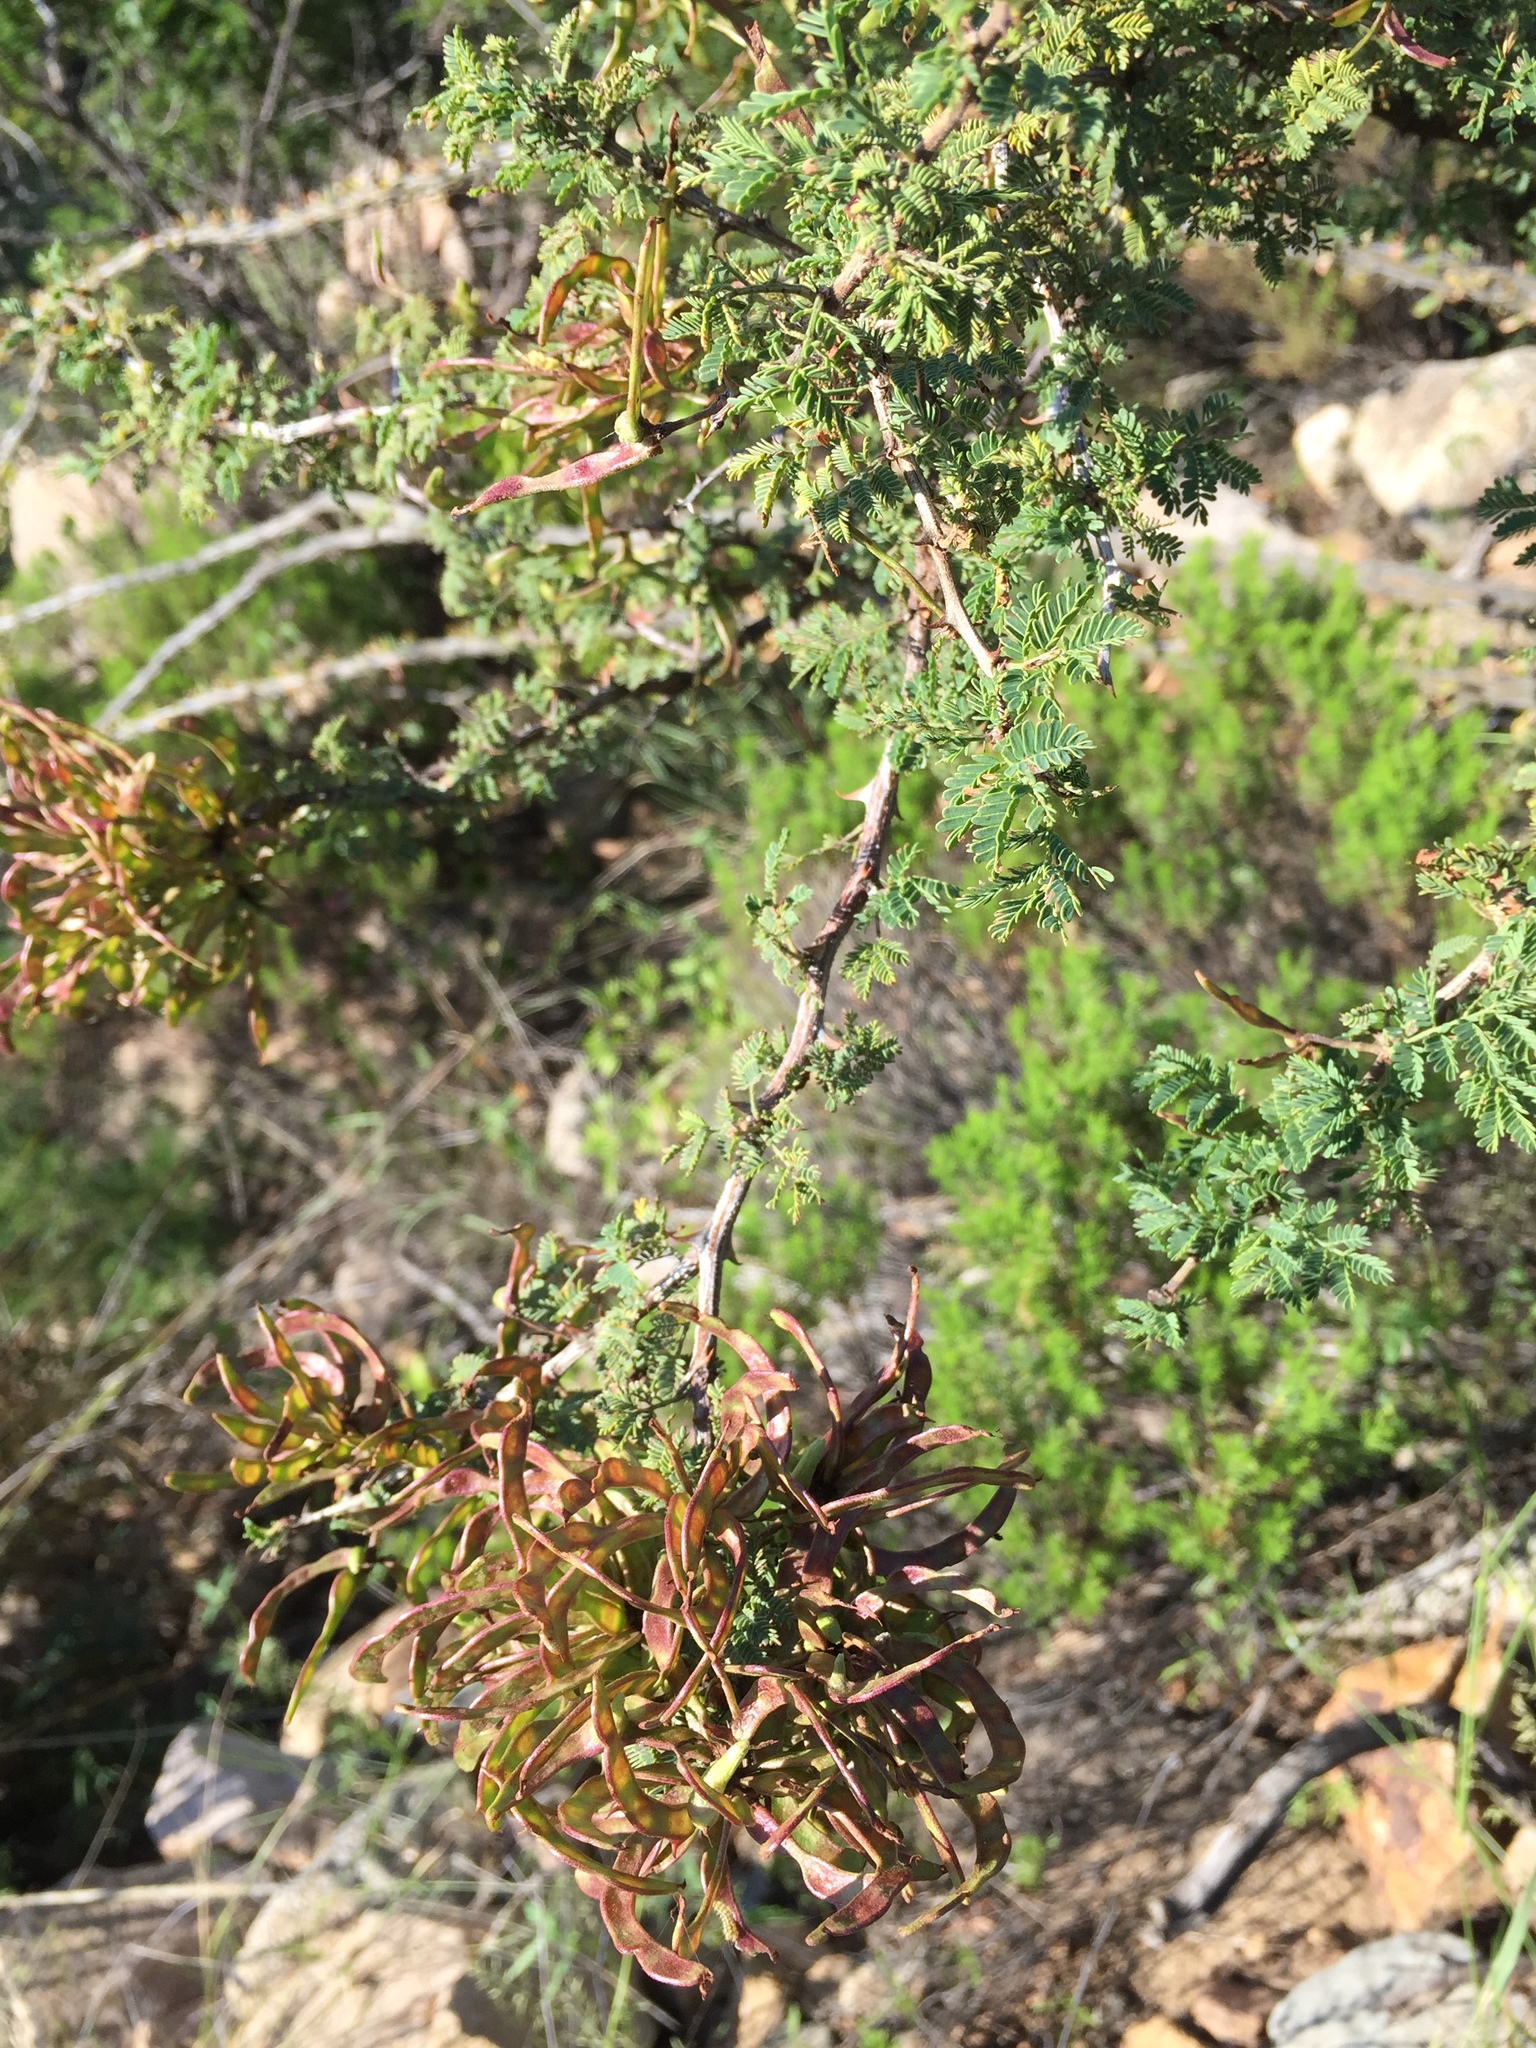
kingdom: Plantae
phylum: Tracheophyta
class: Magnoliopsida
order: Fabales
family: Fabaceae
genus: Mimosa
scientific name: Mimosa biuncifera
